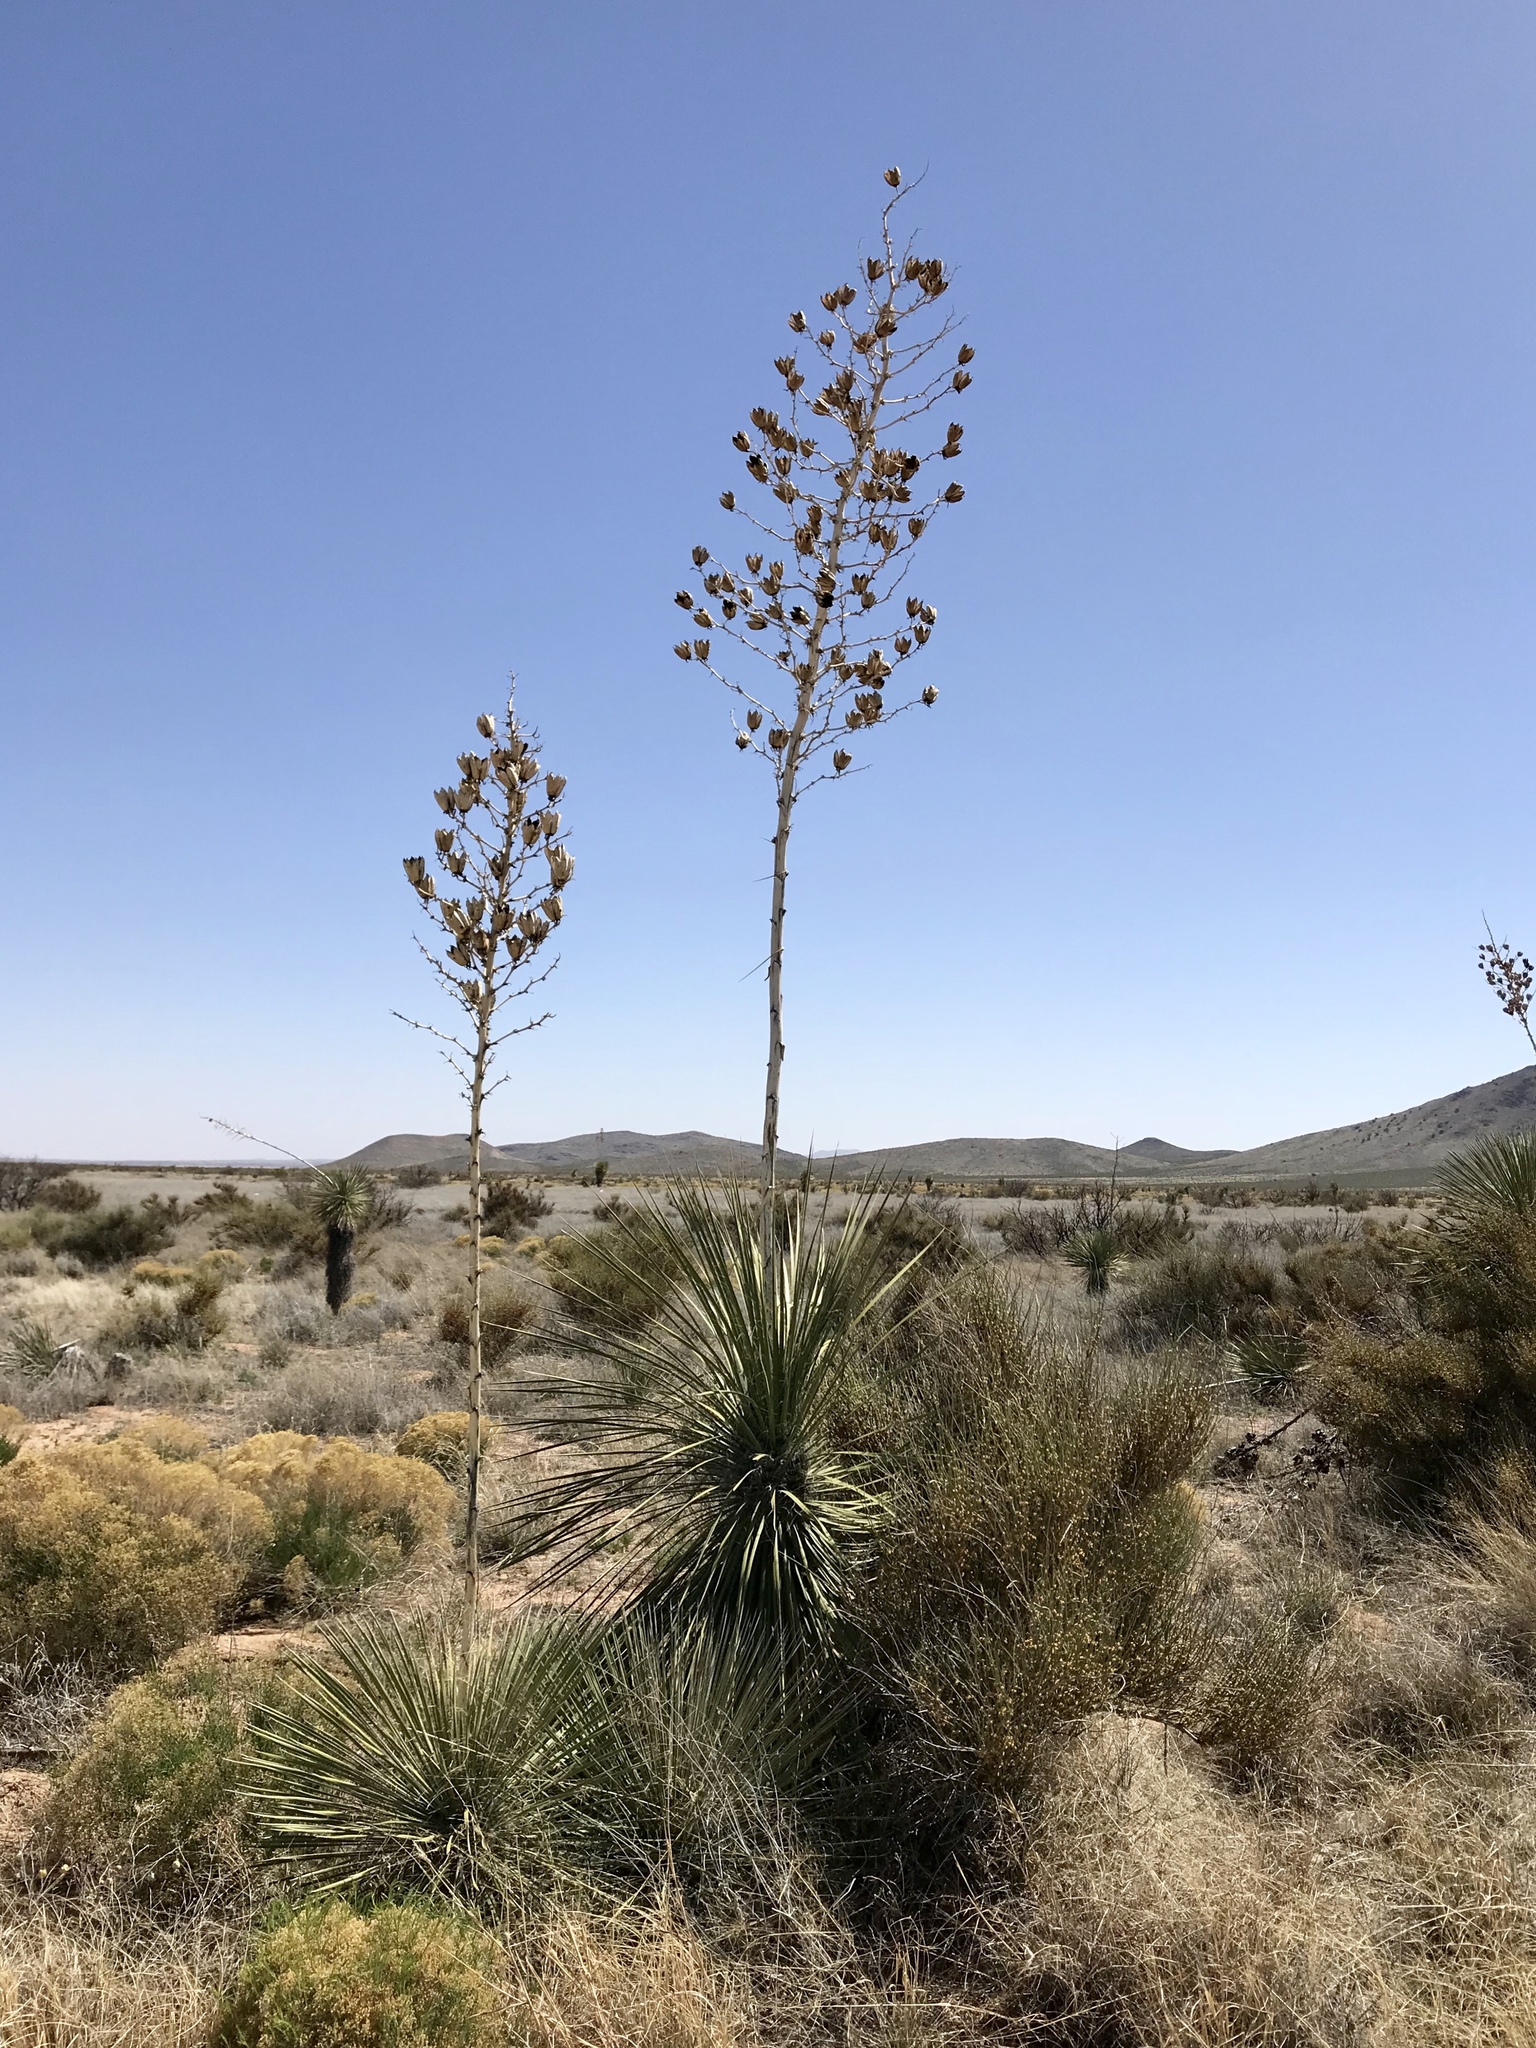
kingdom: Plantae
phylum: Tracheophyta
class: Liliopsida
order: Asparagales
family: Asparagaceae
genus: Yucca
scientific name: Yucca elata
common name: Palmella
